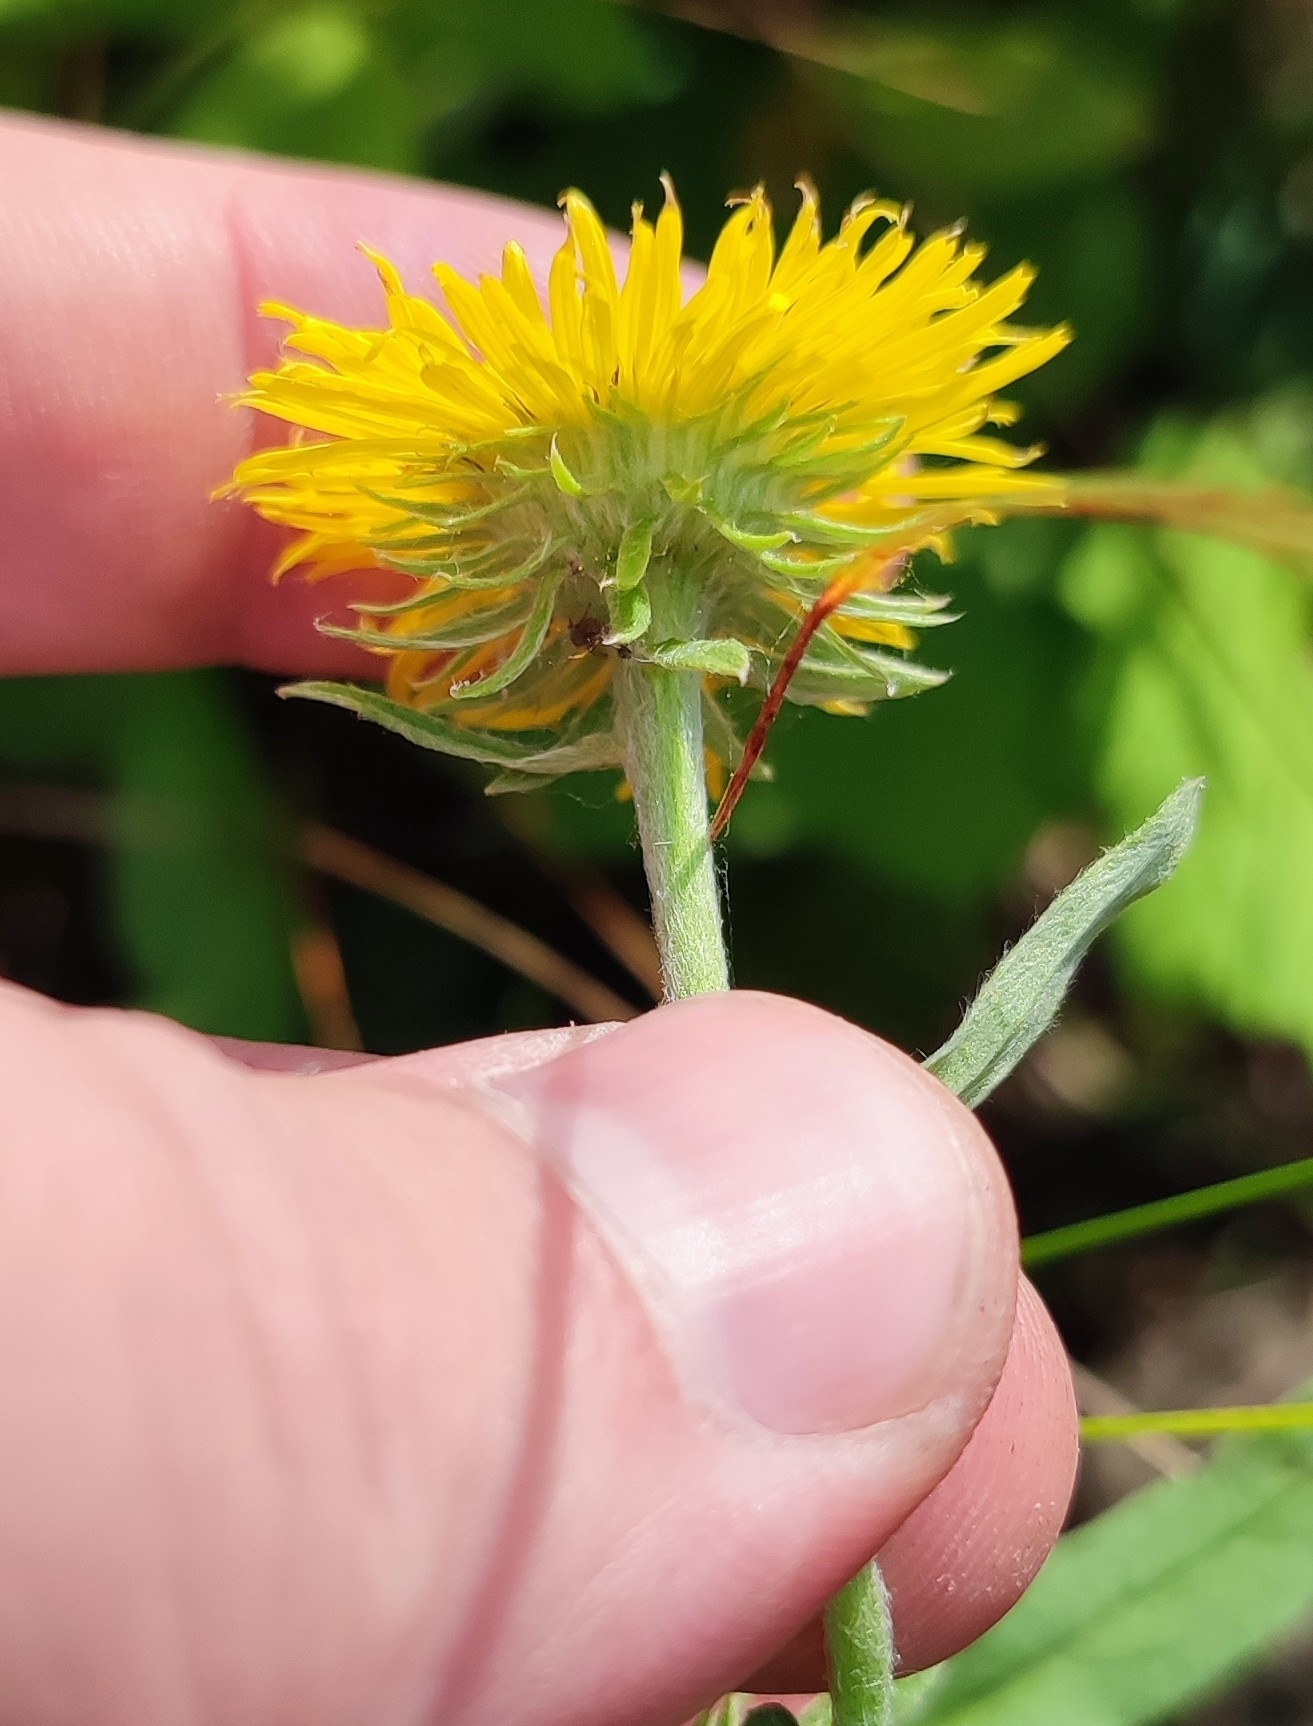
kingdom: Plantae
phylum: Tracheophyta
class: Magnoliopsida
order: Asterales
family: Asteraceae
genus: Pentanema
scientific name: Pentanema britannicum
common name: British elecampane
